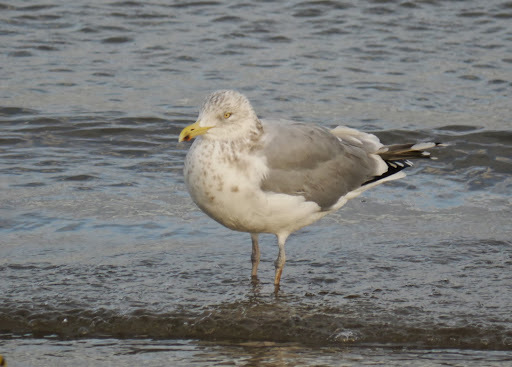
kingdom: Animalia
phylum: Chordata
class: Aves
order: Charadriiformes
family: Laridae
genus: Larus
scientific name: Larus argentatus
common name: Herring gull
